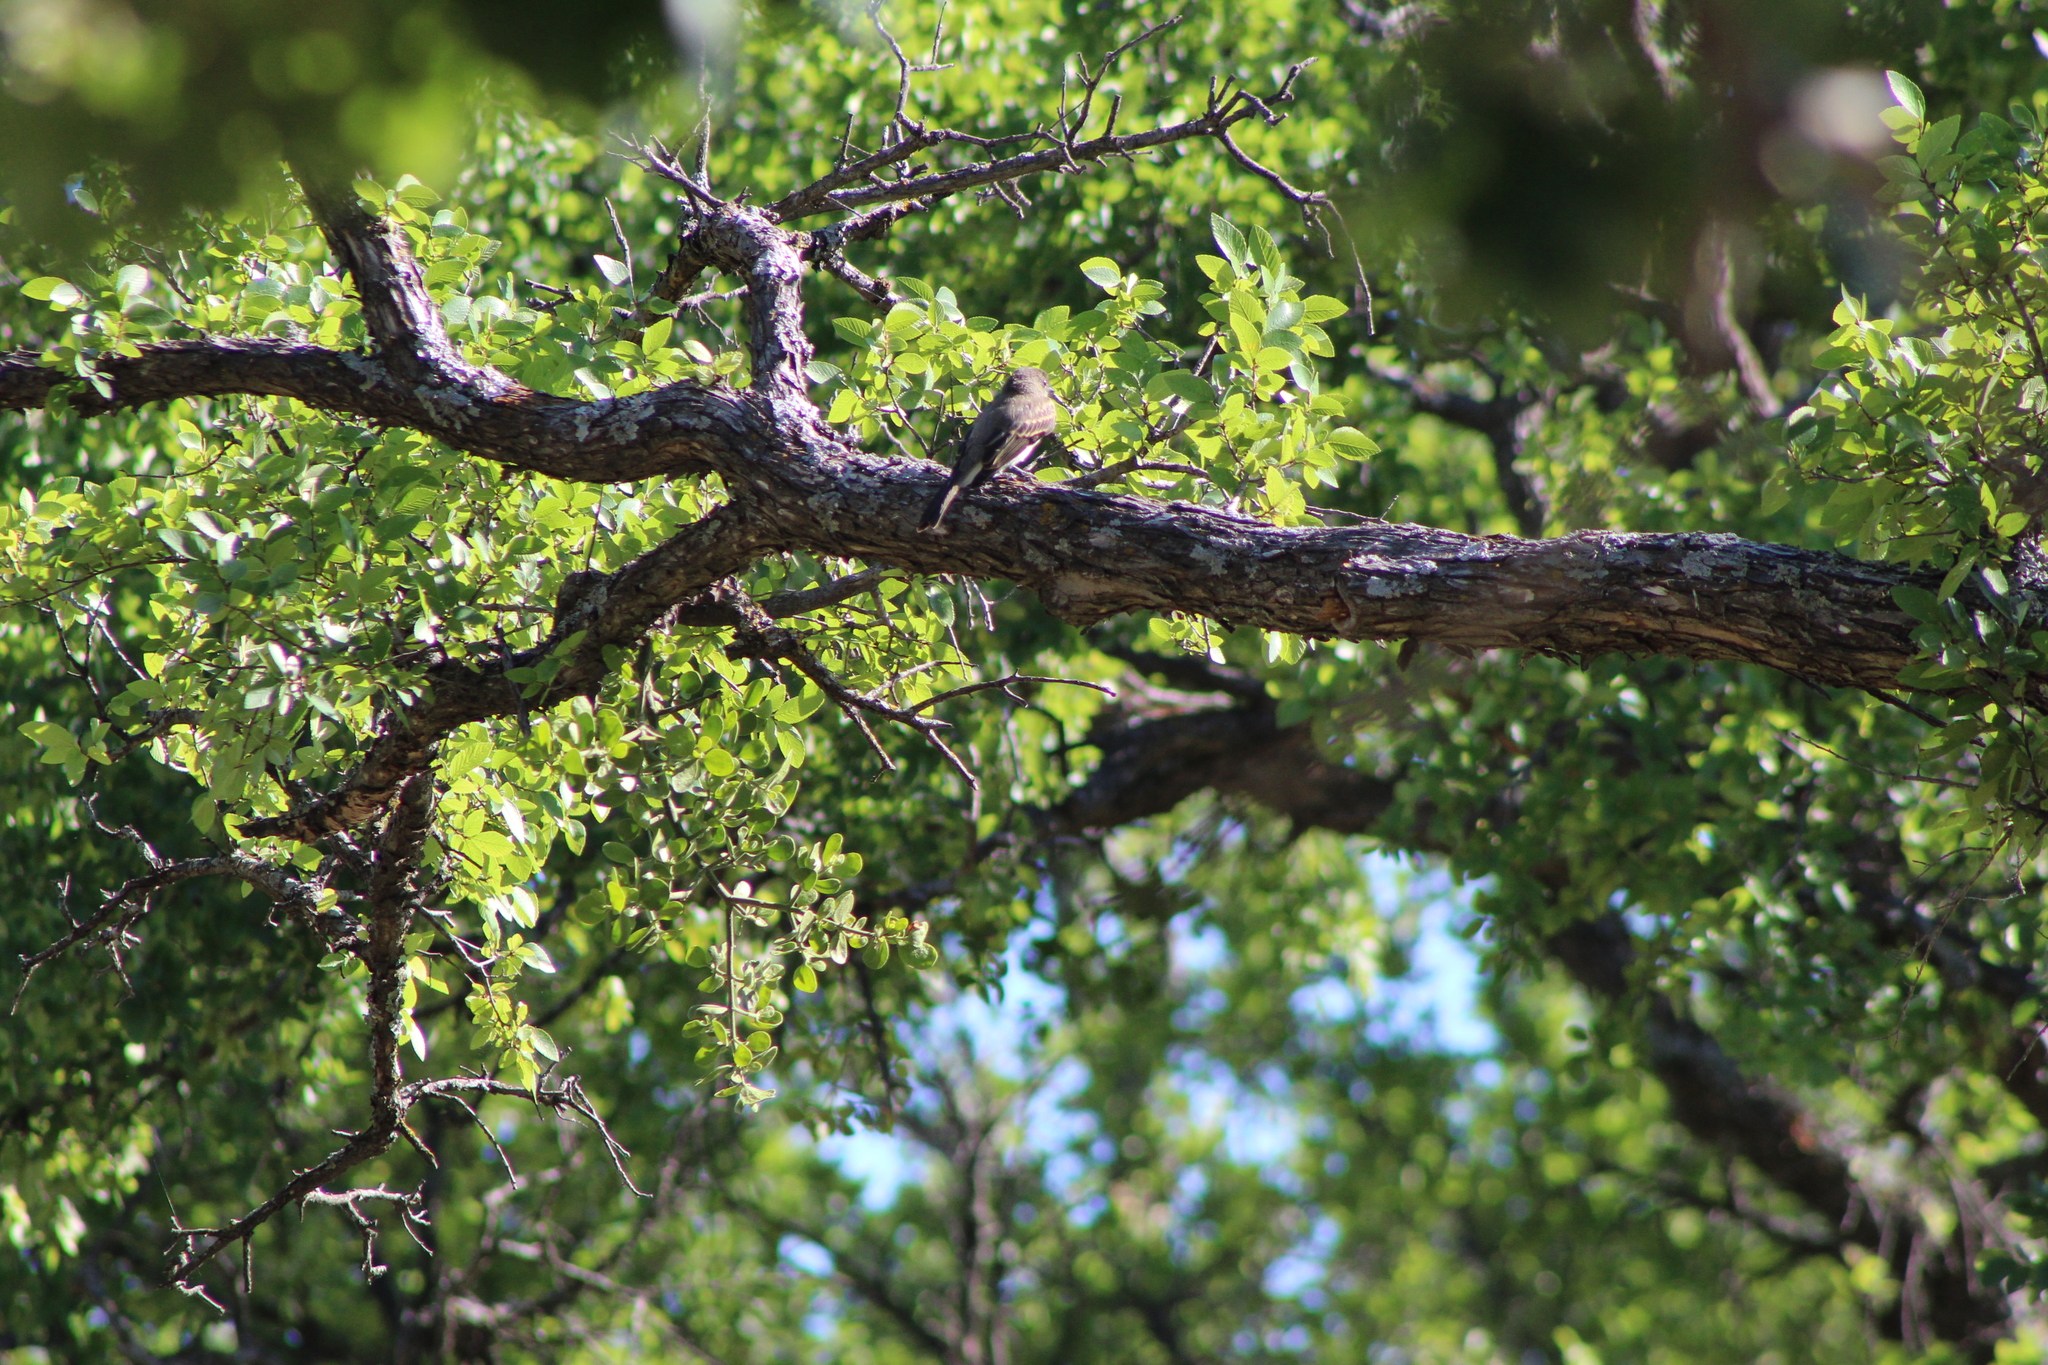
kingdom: Animalia
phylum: Chordata
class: Aves
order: Passeriformes
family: Tyrannidae
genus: Sayornis
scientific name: Sayornis phoebe
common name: Eastern phoebe
